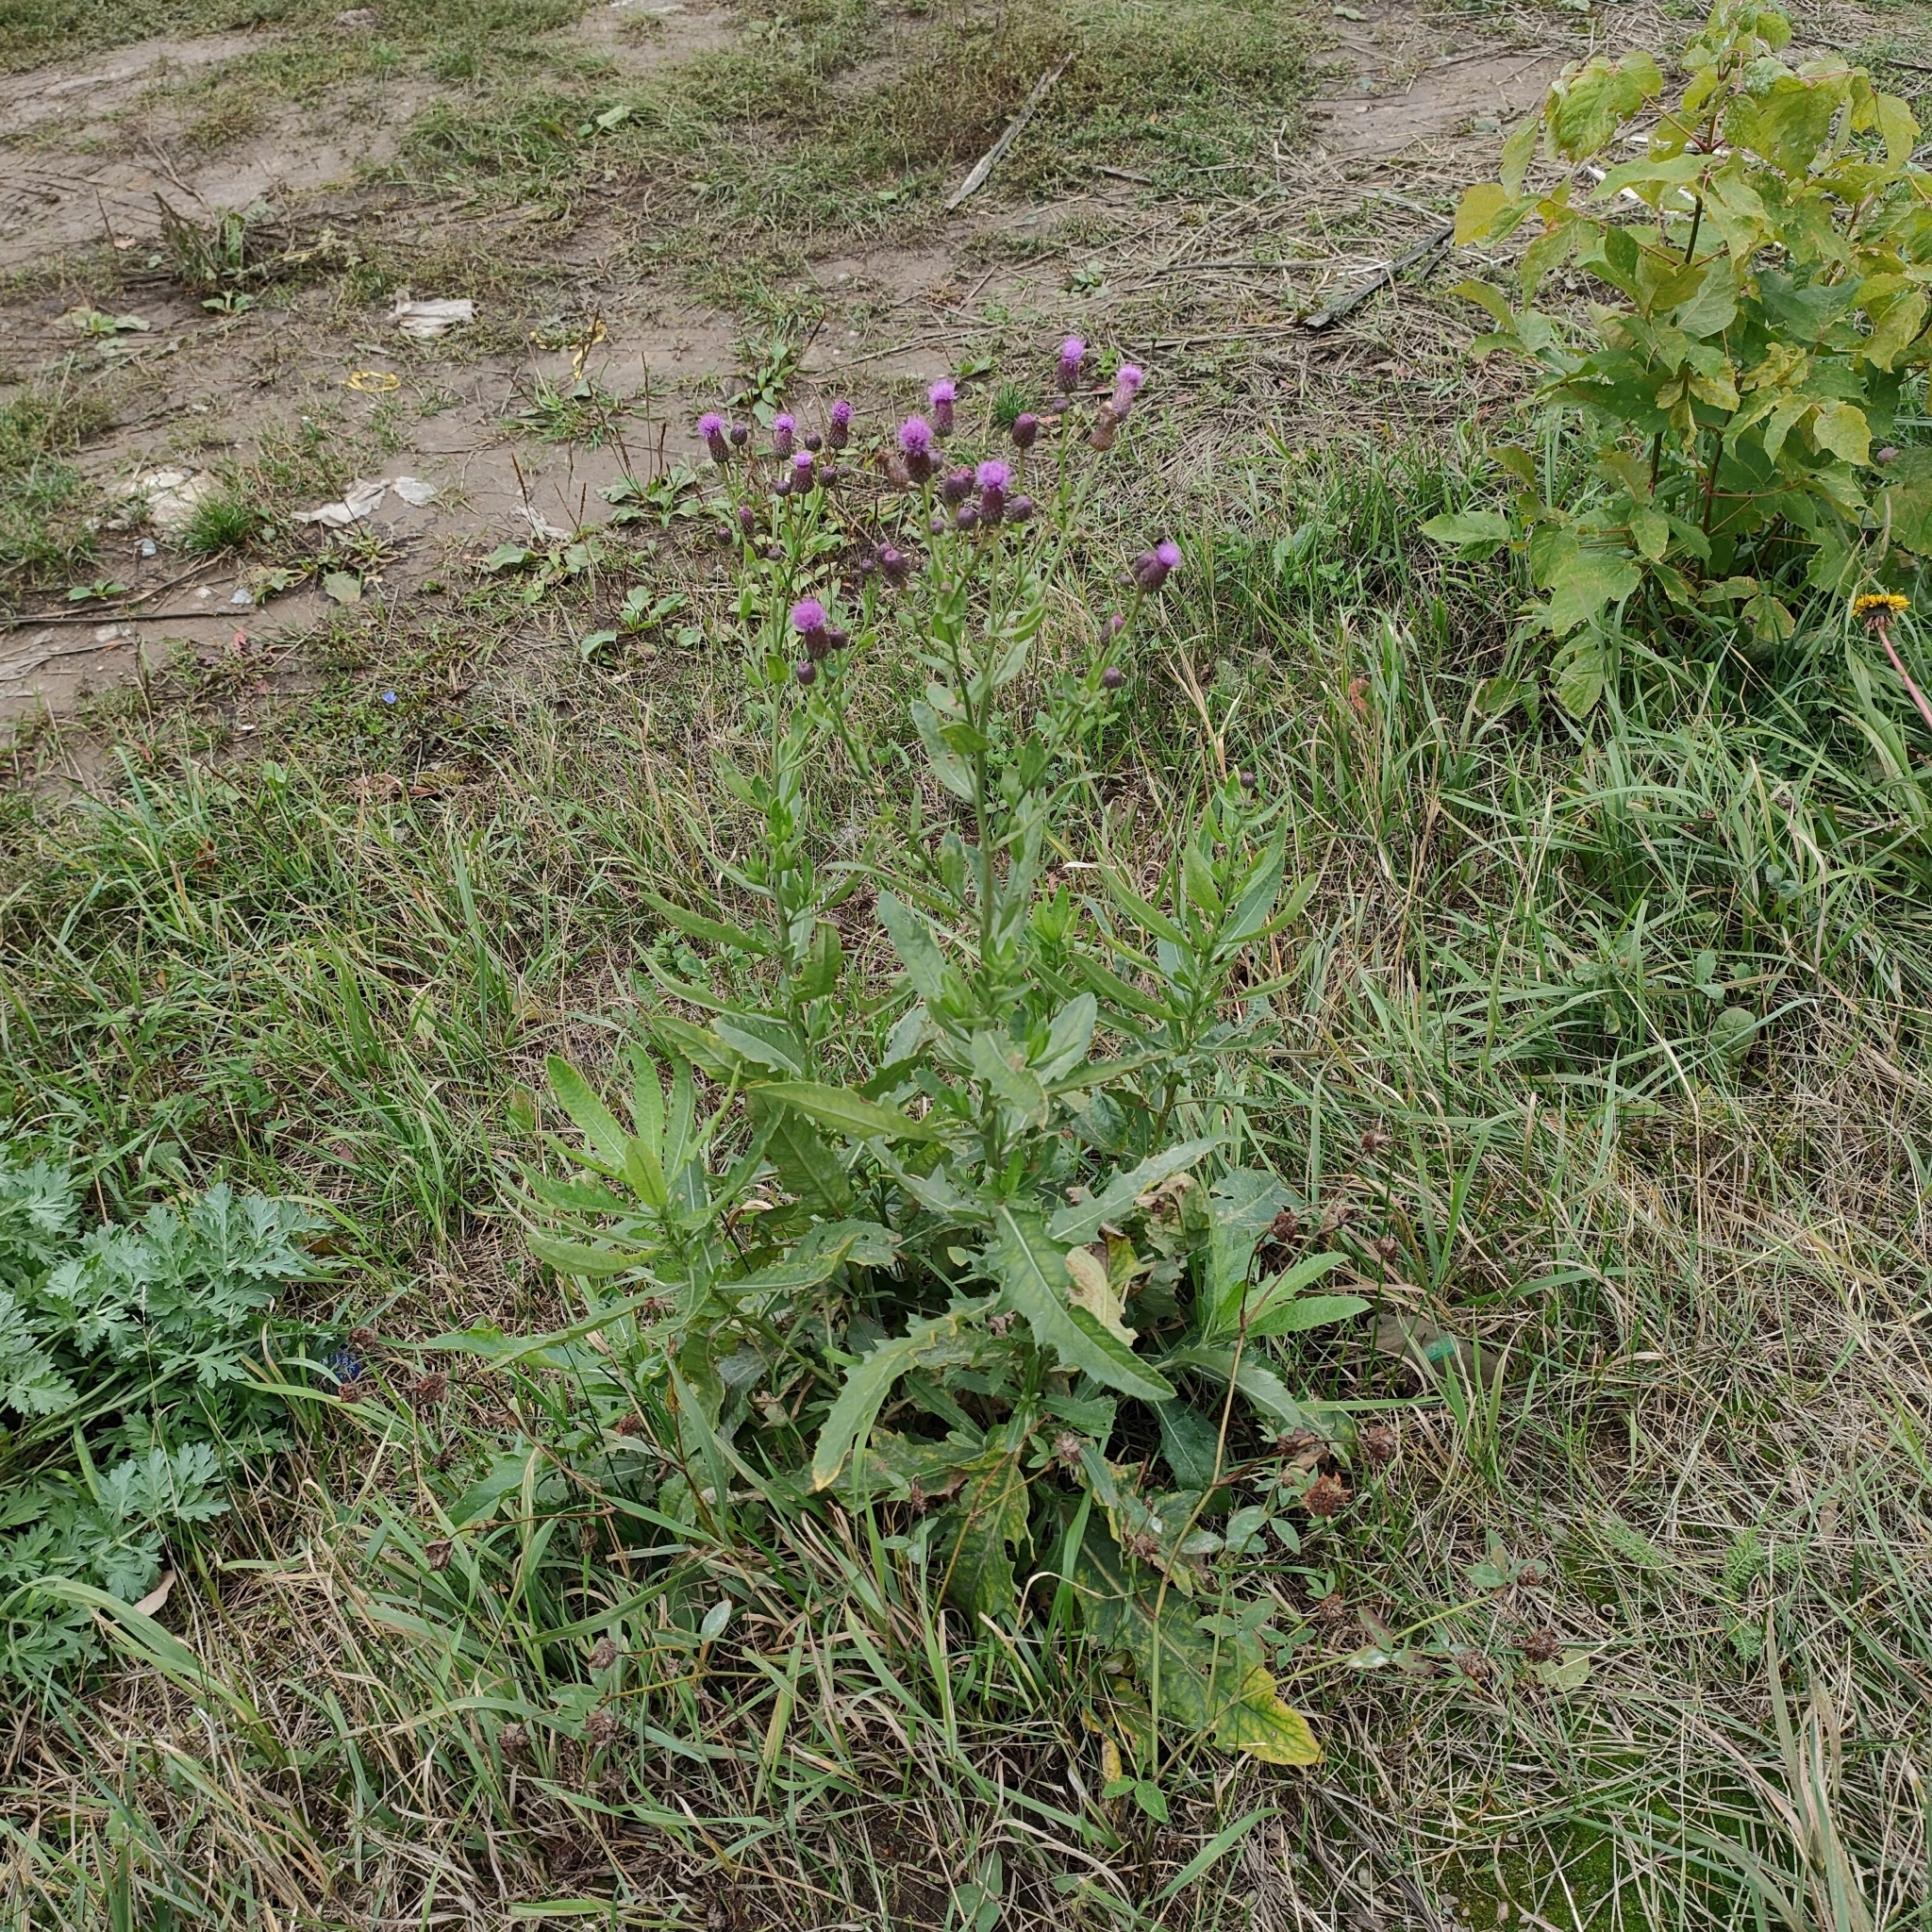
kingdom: Plantae
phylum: Tracheophyta
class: Magnoliopsida
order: Asterales
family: Asteraceae
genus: Cirsium
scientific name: Cirsium arvense
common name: Creeping thistle
